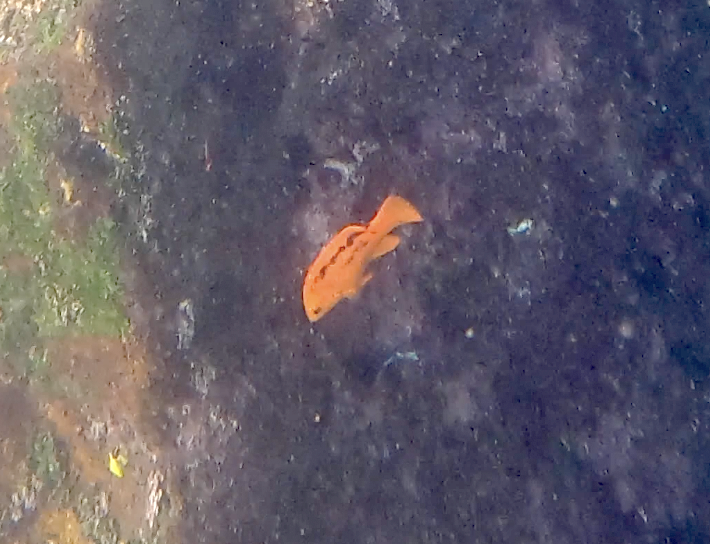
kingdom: Animalia
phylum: Chordata
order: Perciformes
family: Labridae
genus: Bodianus
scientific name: Bodianus eclancheri
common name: Harlequin wrasse
